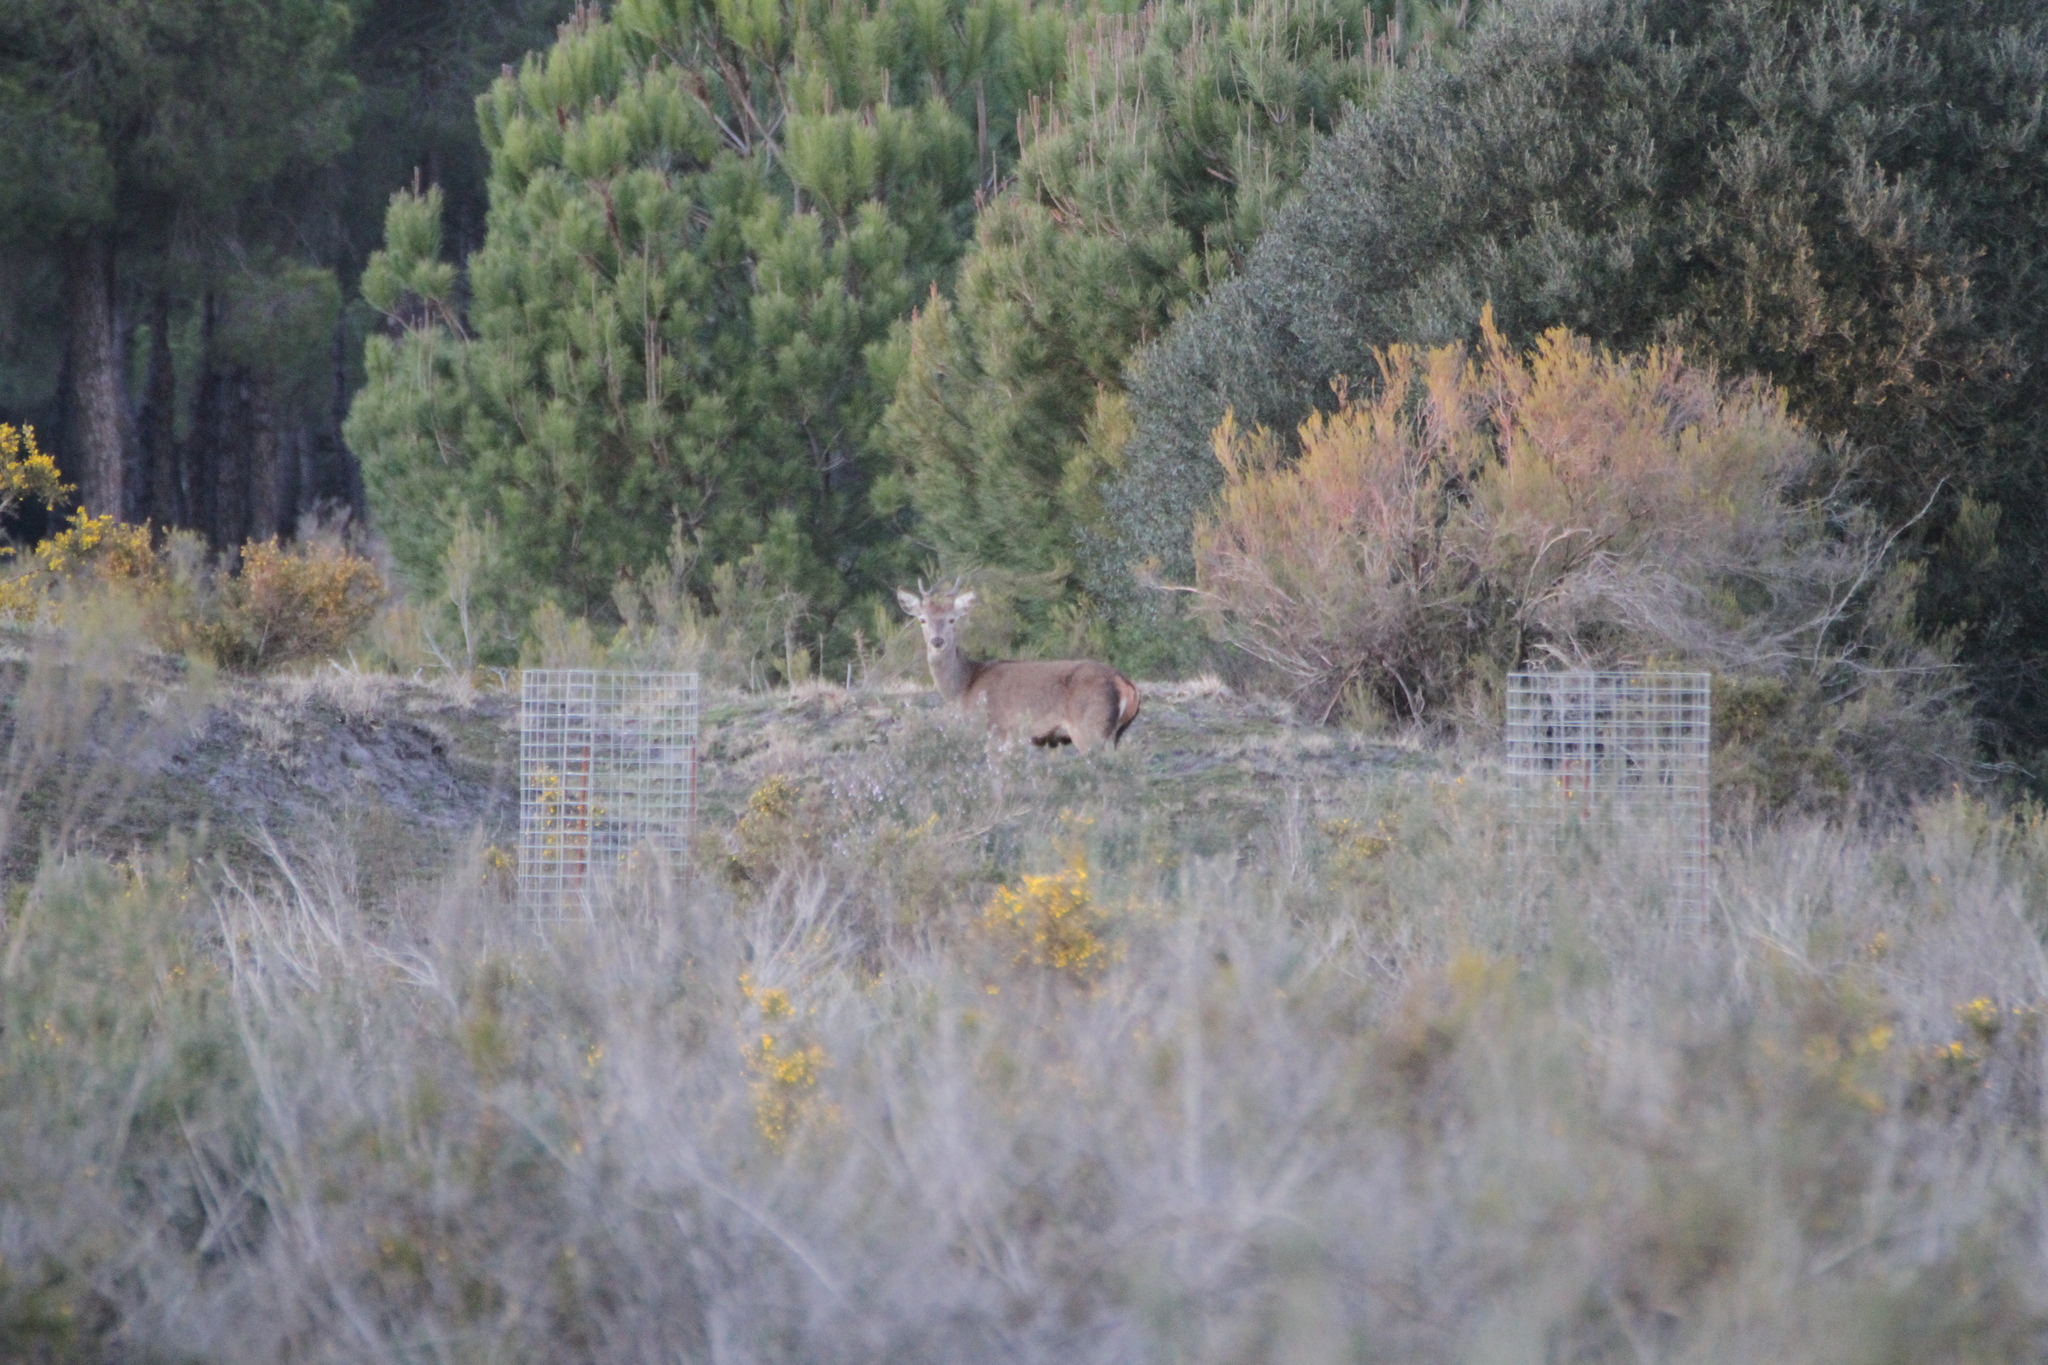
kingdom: Animalia
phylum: Chordata
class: Mammalia
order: Artiodactyla
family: Cervidae
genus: Cervus
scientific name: Cervus elaphus
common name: Red deer
